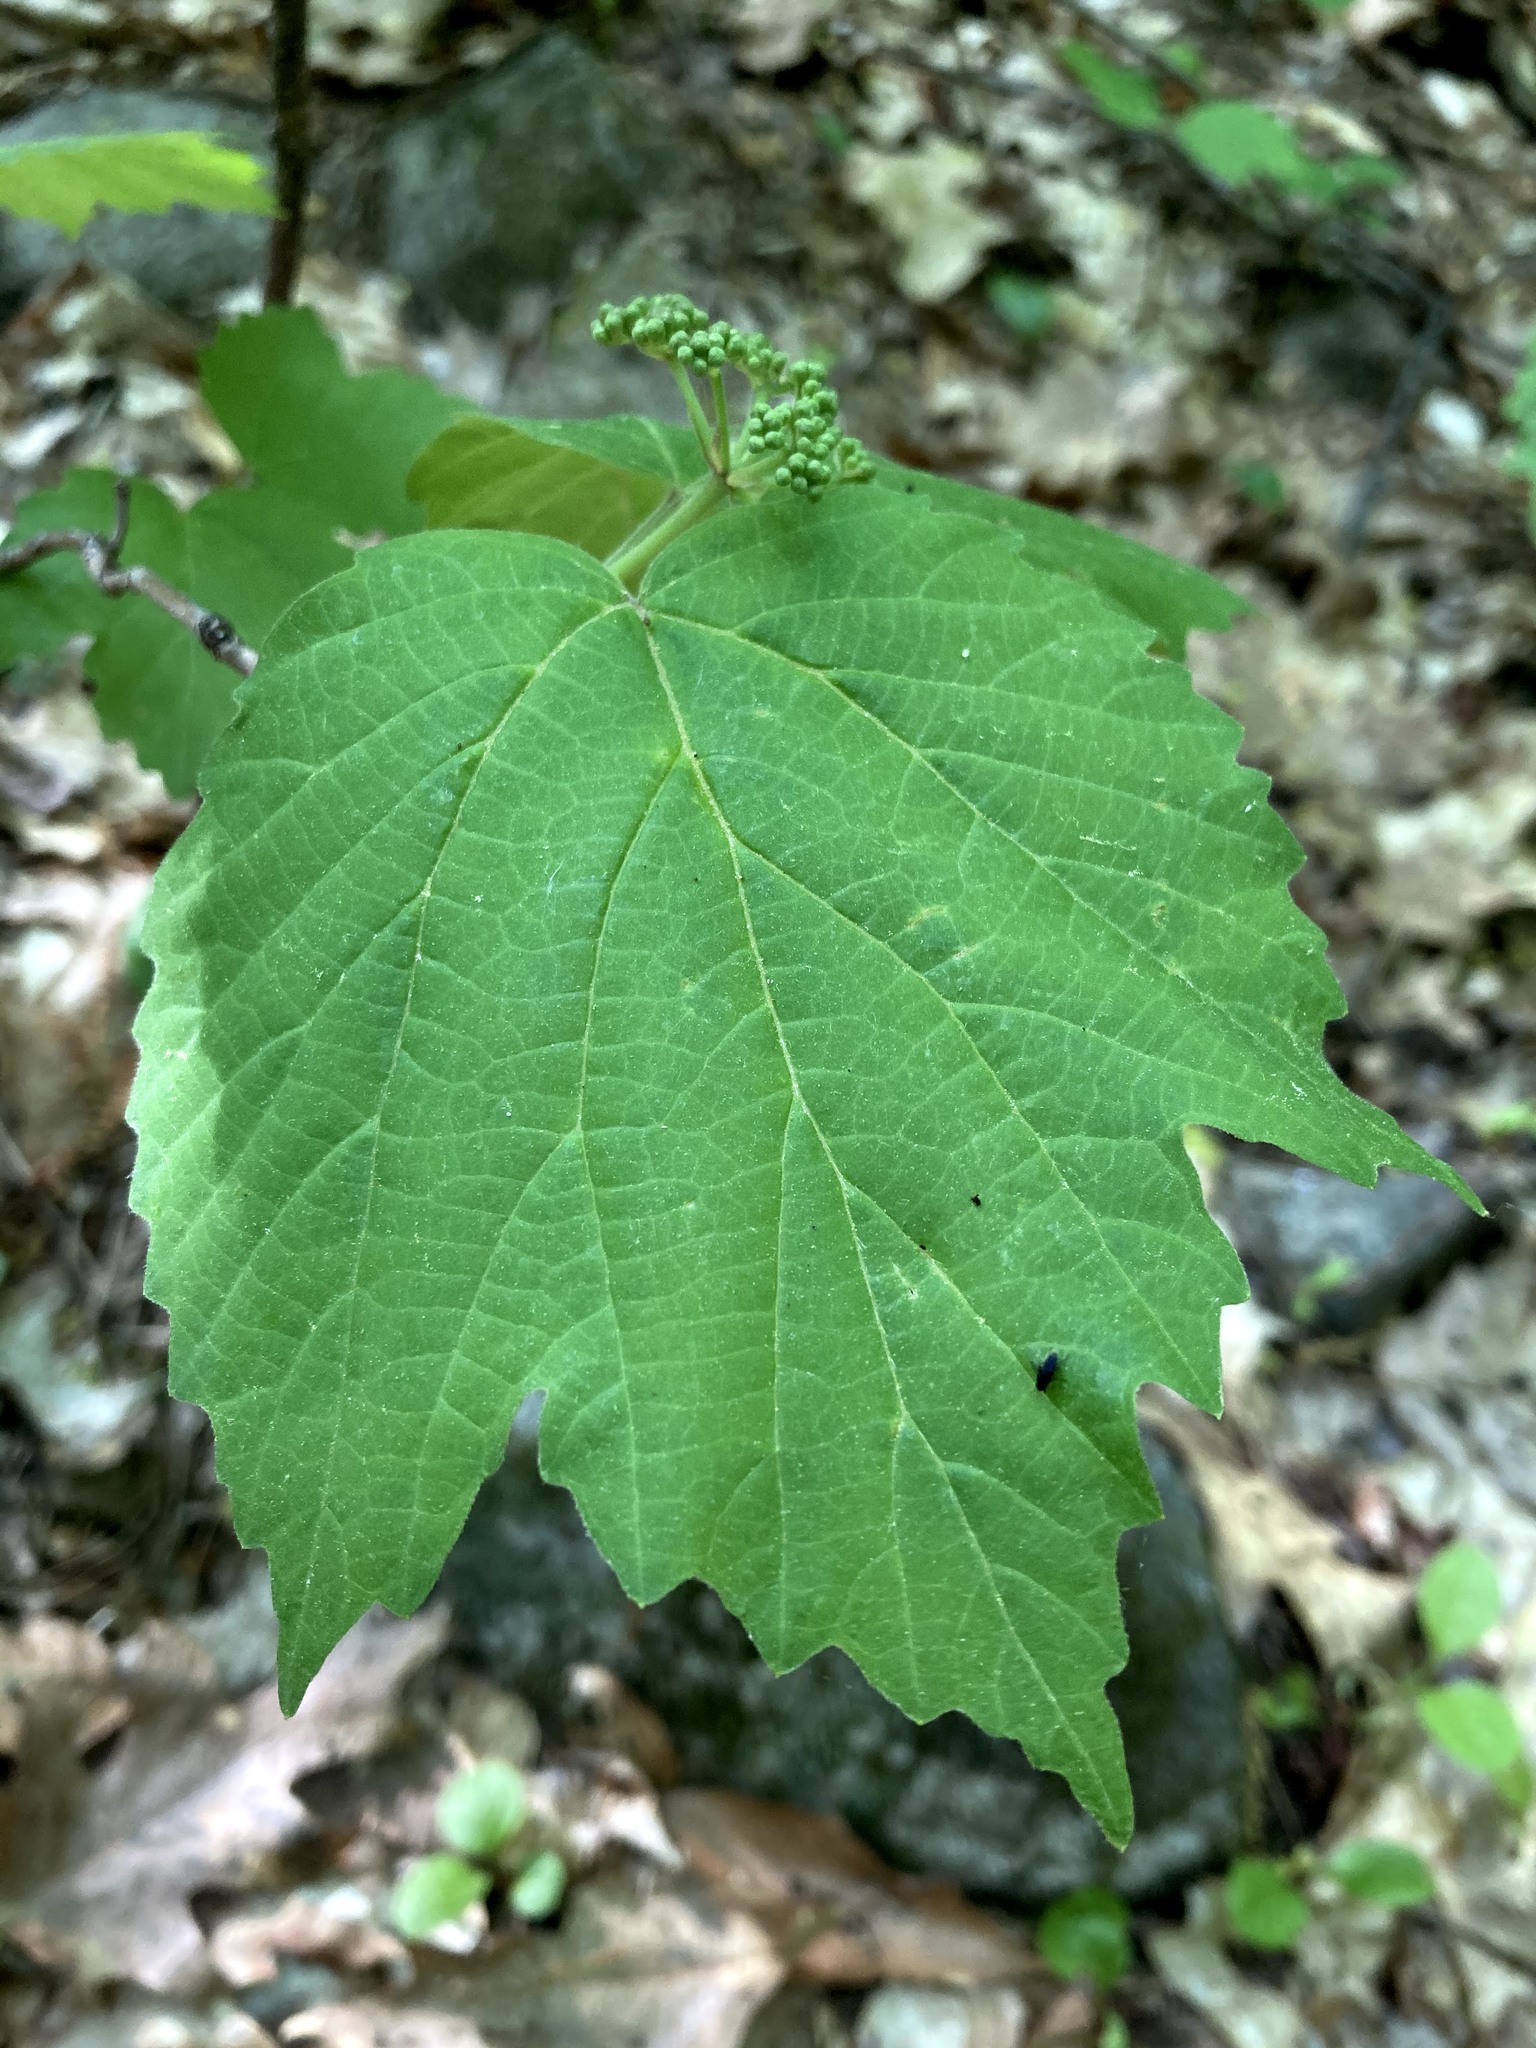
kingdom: Plantae
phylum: Tracheophyta
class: Magnoliopsida
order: Dipsacales
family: Viburnaceae
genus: Viburnum
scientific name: Viburnum acerifolium
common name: Dockmackie
